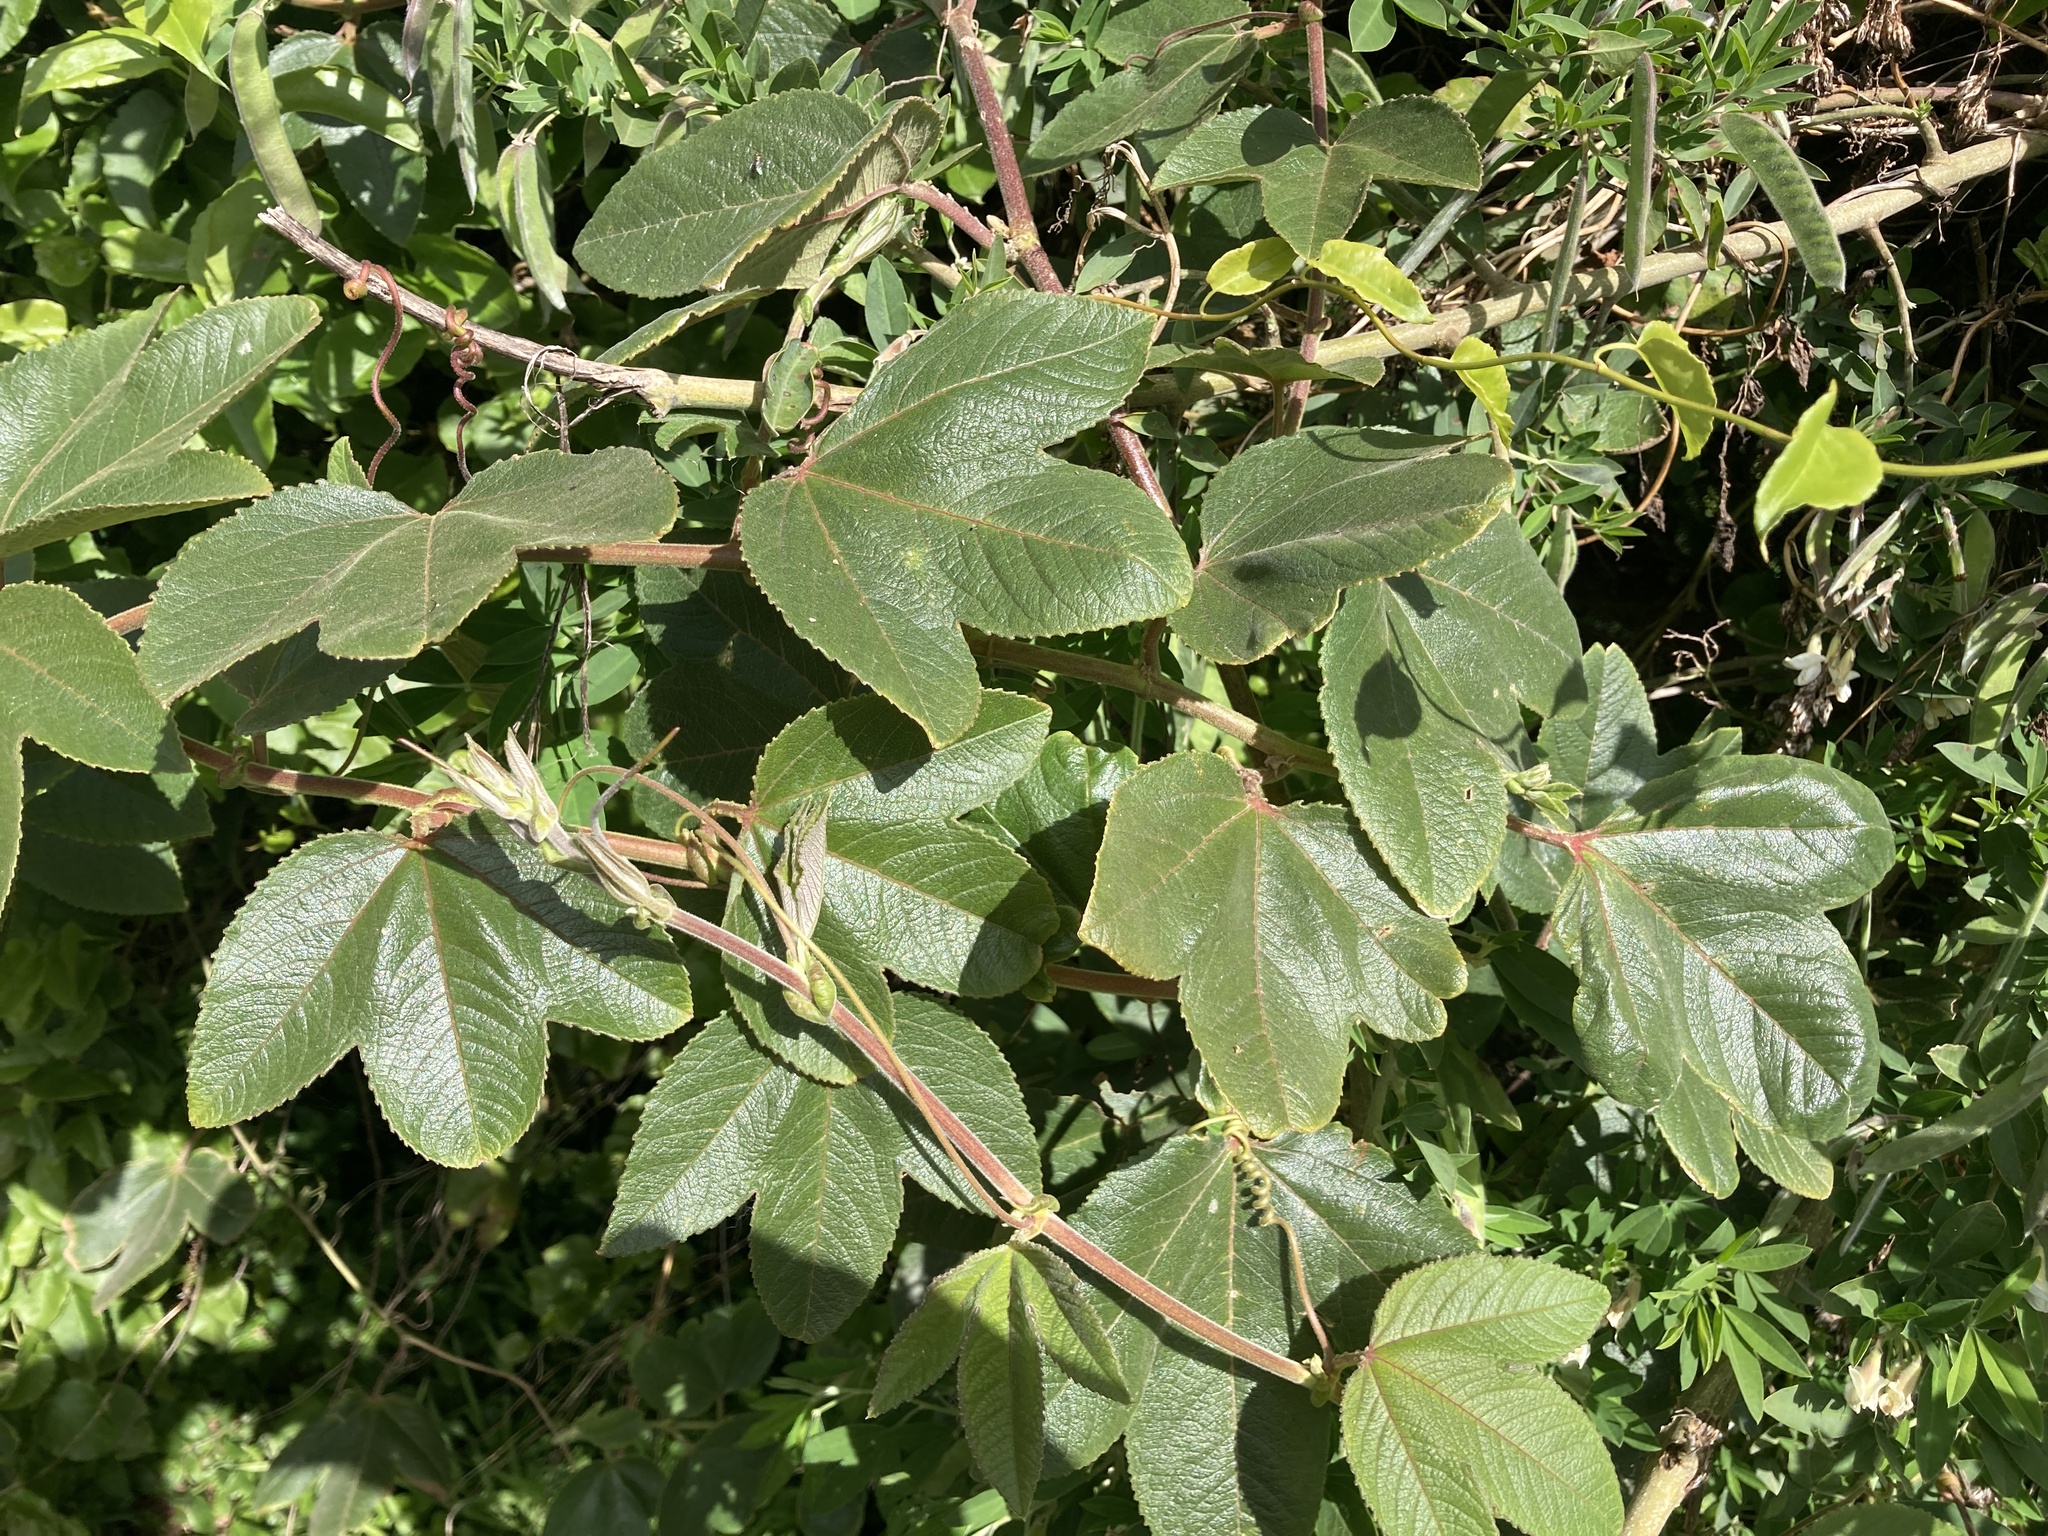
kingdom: Plantae
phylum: Tracheophyta
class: Magnoliopsida
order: Malpighiales
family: Passifloraceae
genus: Passiflora
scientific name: Passiflora tripartita
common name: Banana poka
